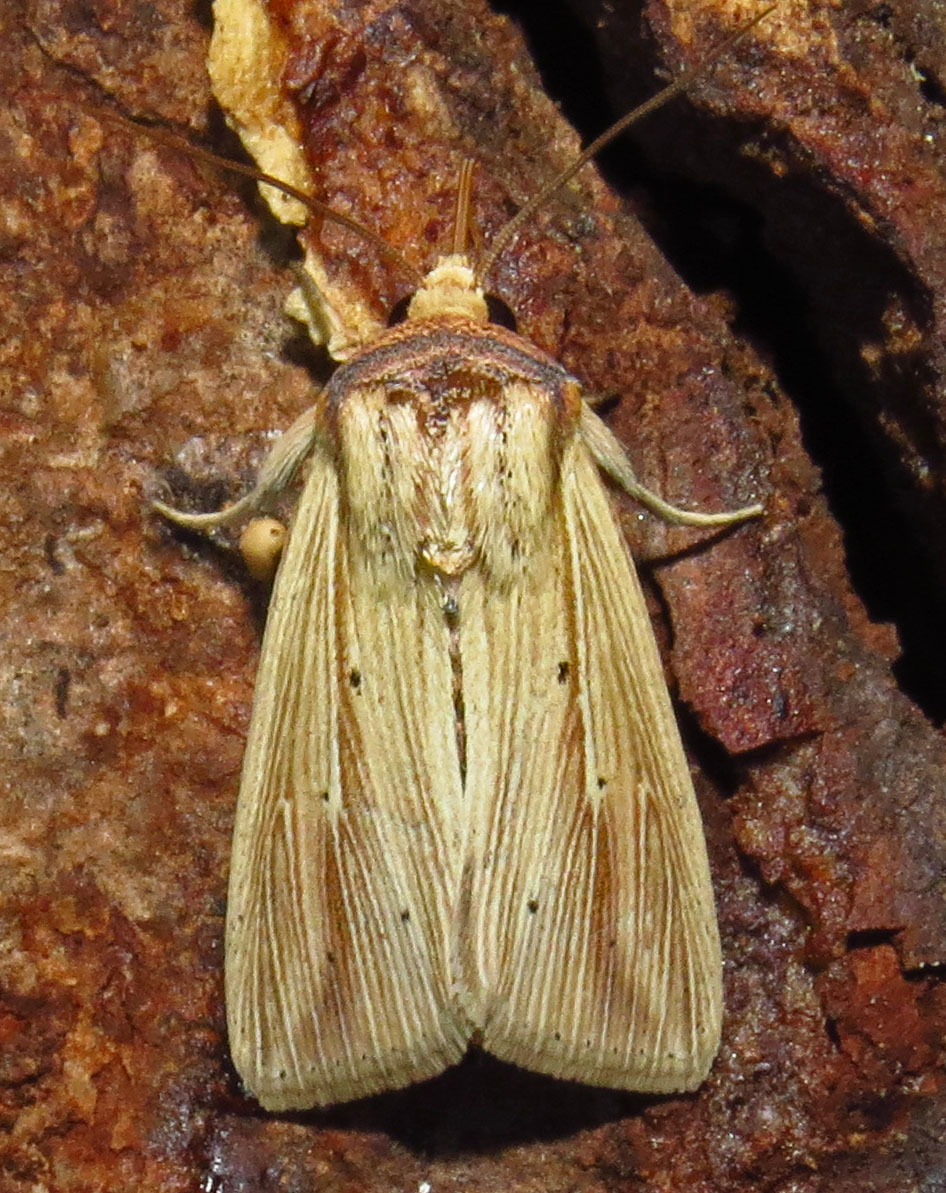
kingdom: Animalia
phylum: Arthropoda
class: Insecta
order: Lepidoptera
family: Noctuidae
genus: Leucania
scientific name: Leucania adjuta
